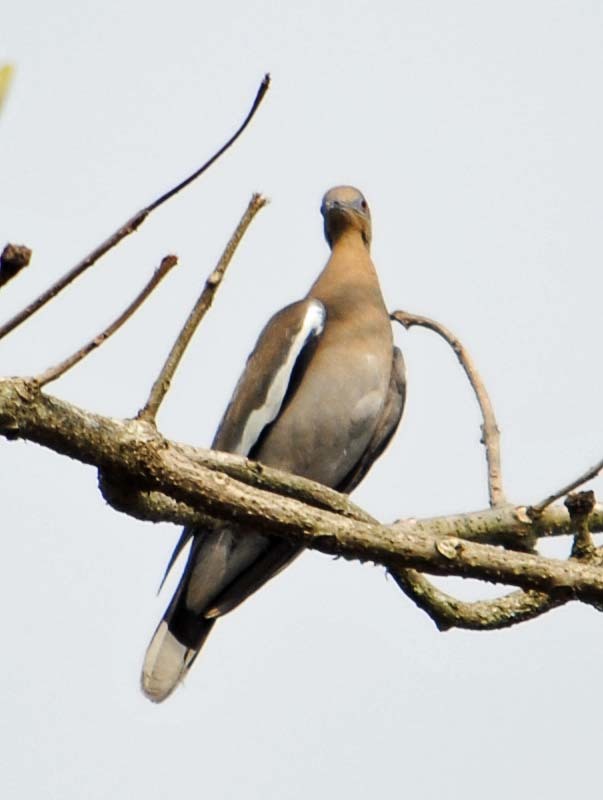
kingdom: Animalia
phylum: Chordata
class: Aves
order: Columbiformes
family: Columbidae
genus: Zenaida
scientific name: Zenaida asiatica
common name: White-winged dove
